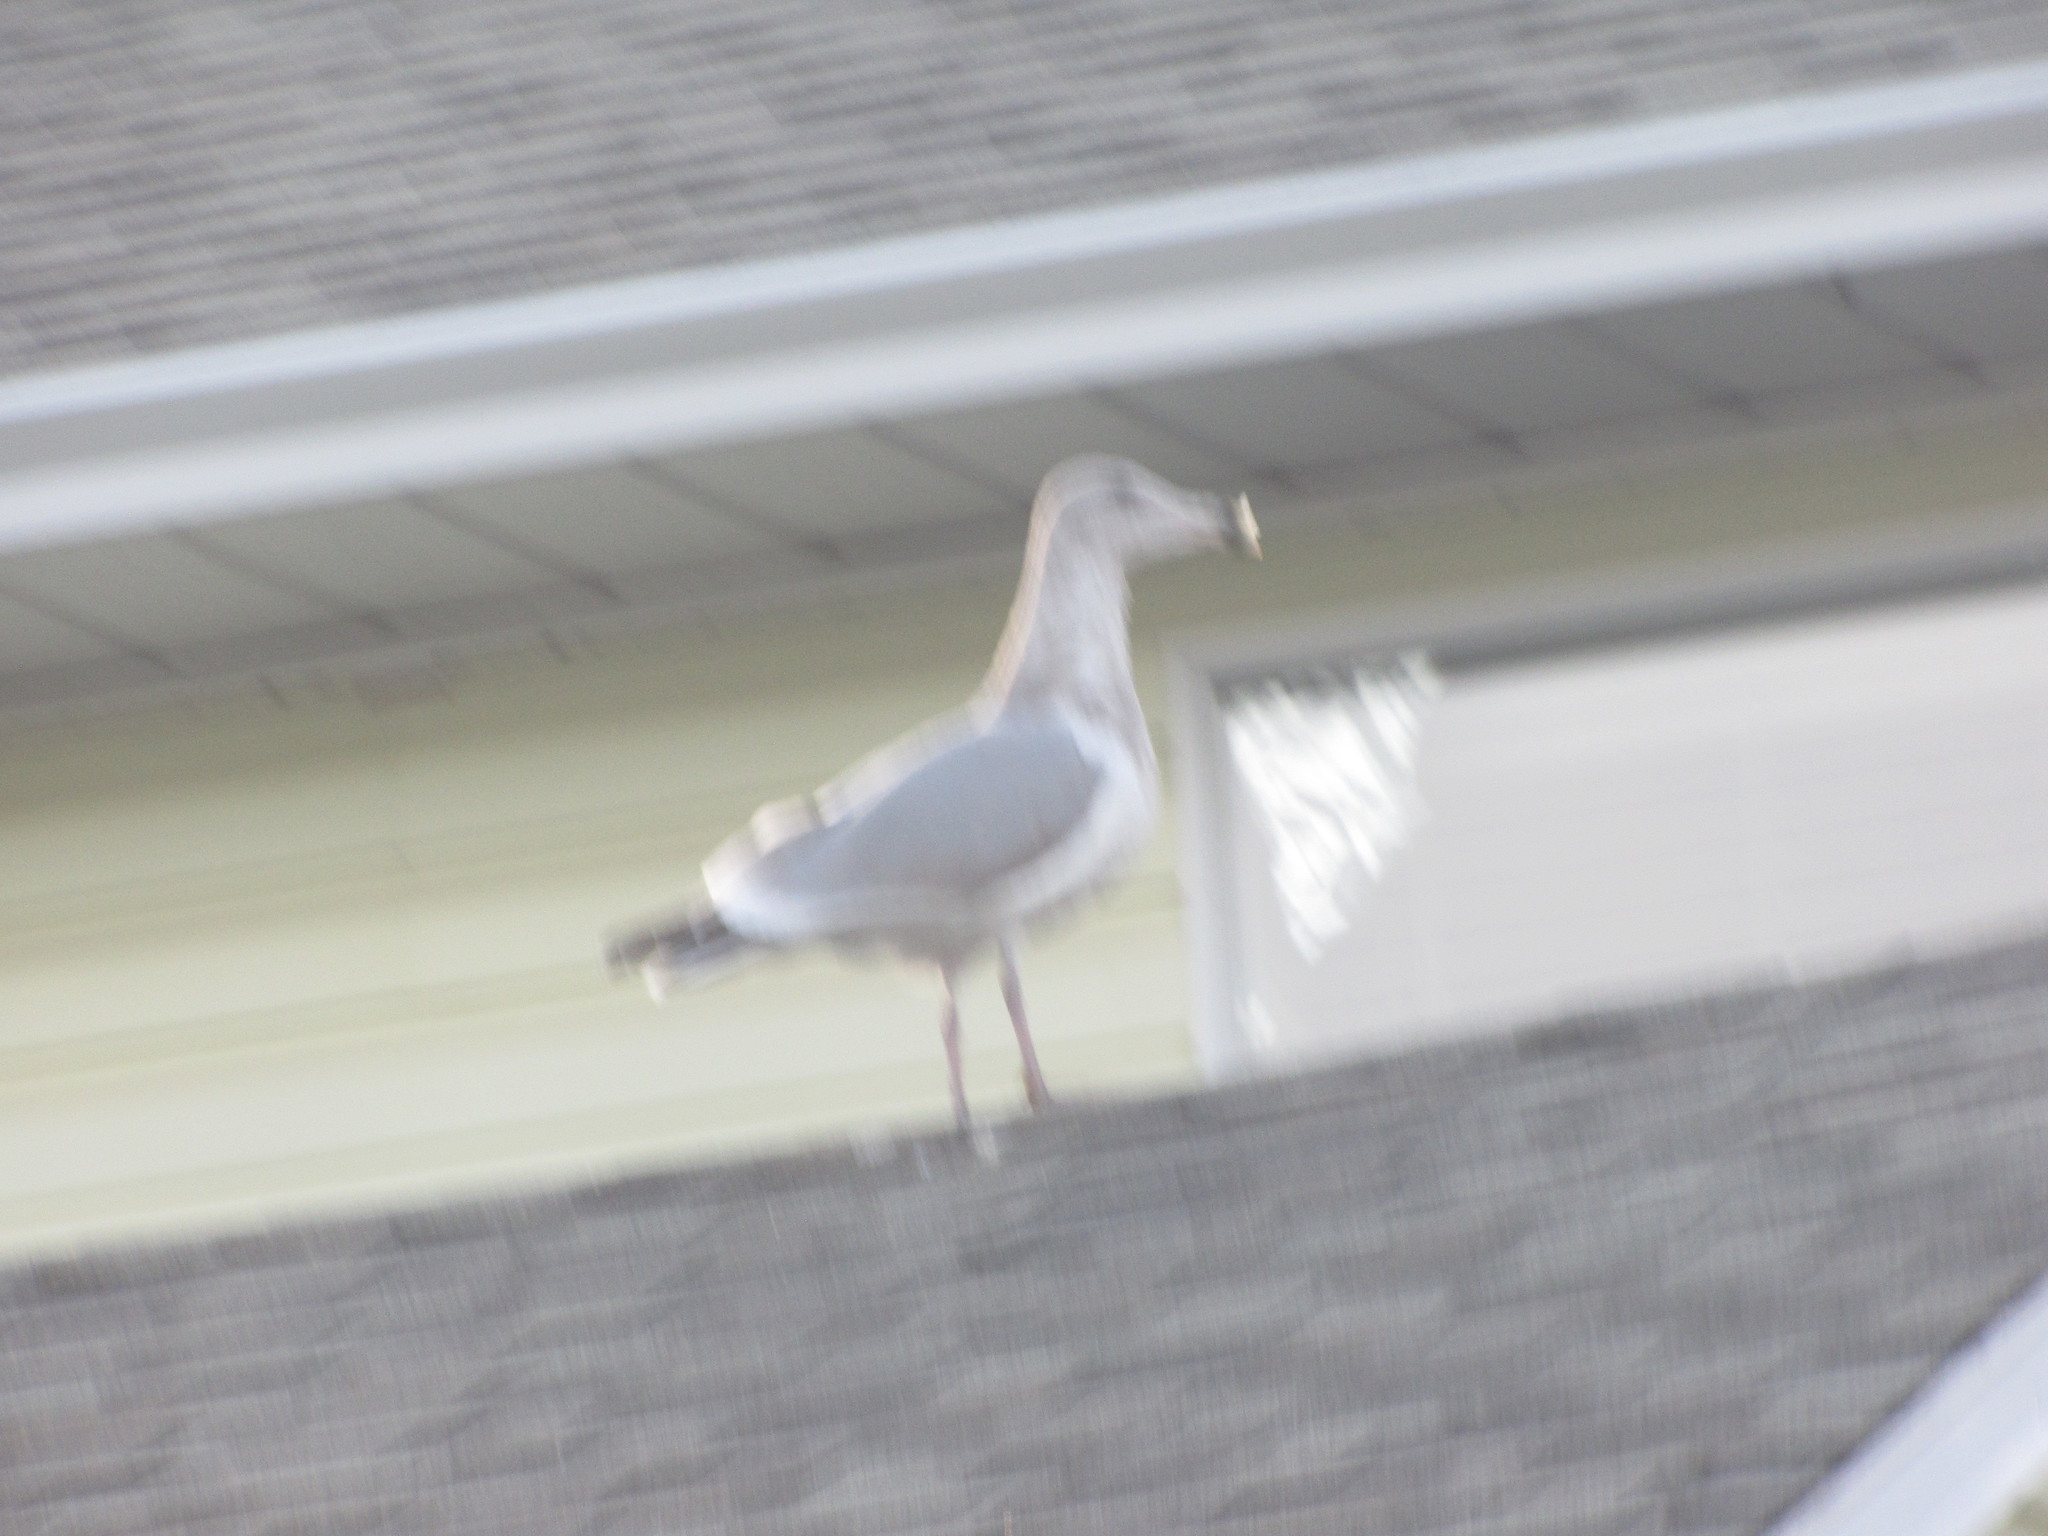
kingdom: Animalia
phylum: Chordata
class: Aves
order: Charadriiformes
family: Laridae
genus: Larus
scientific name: Larus
